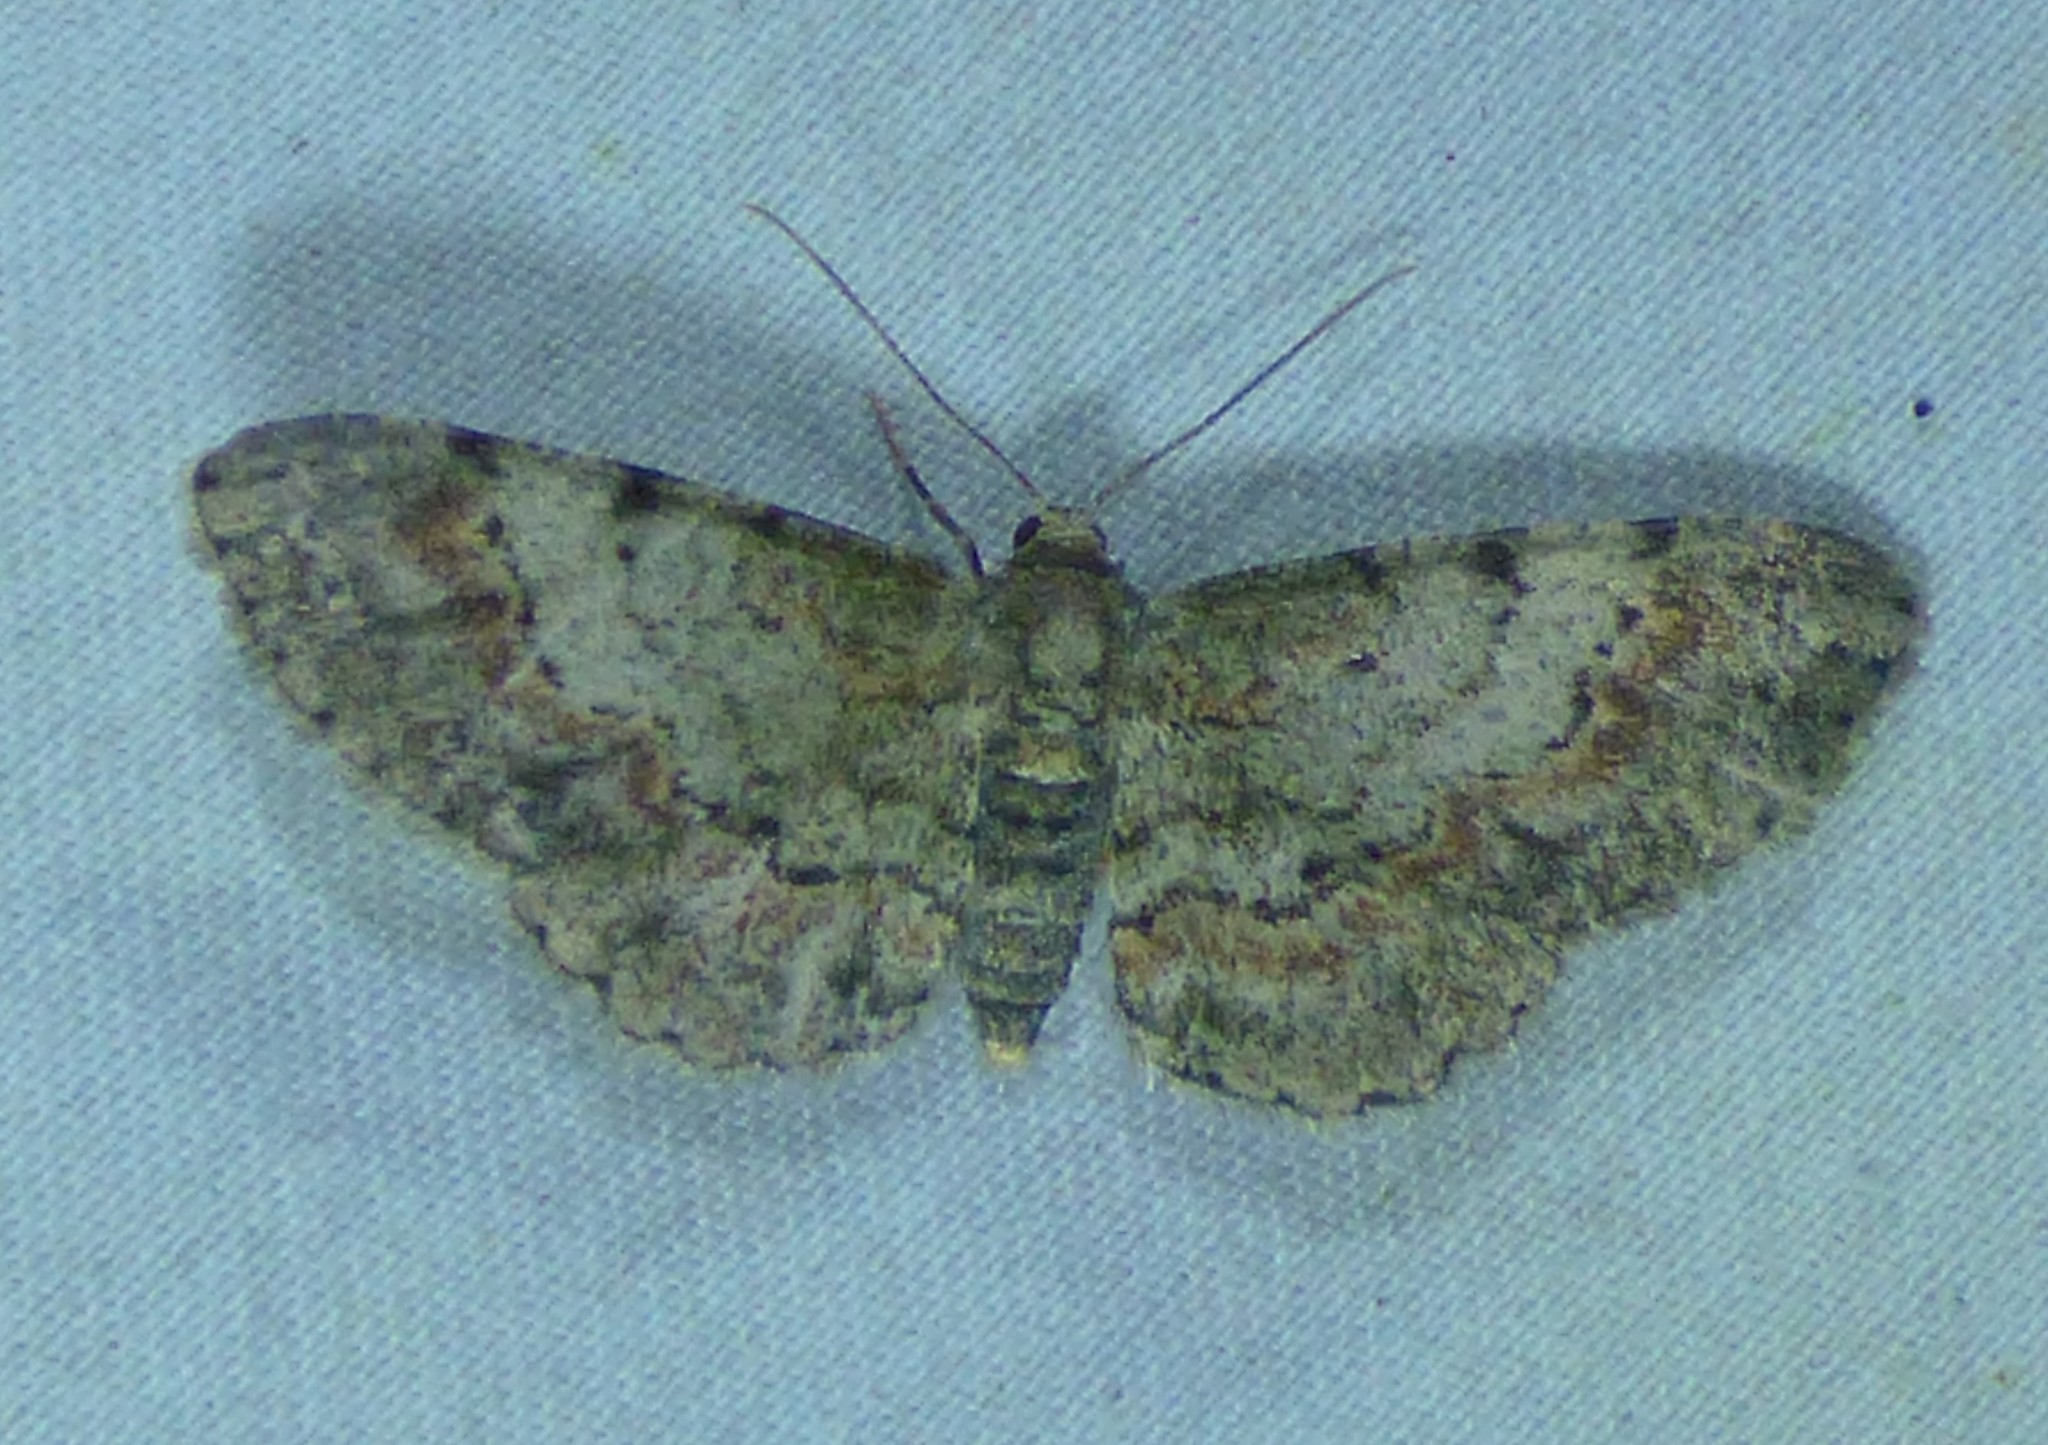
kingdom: Animalia
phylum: Arthropoda
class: Insecta
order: Lepidoptera
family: Geometridae
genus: Glenoides
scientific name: Glenoides texanaria
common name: Texas gray
